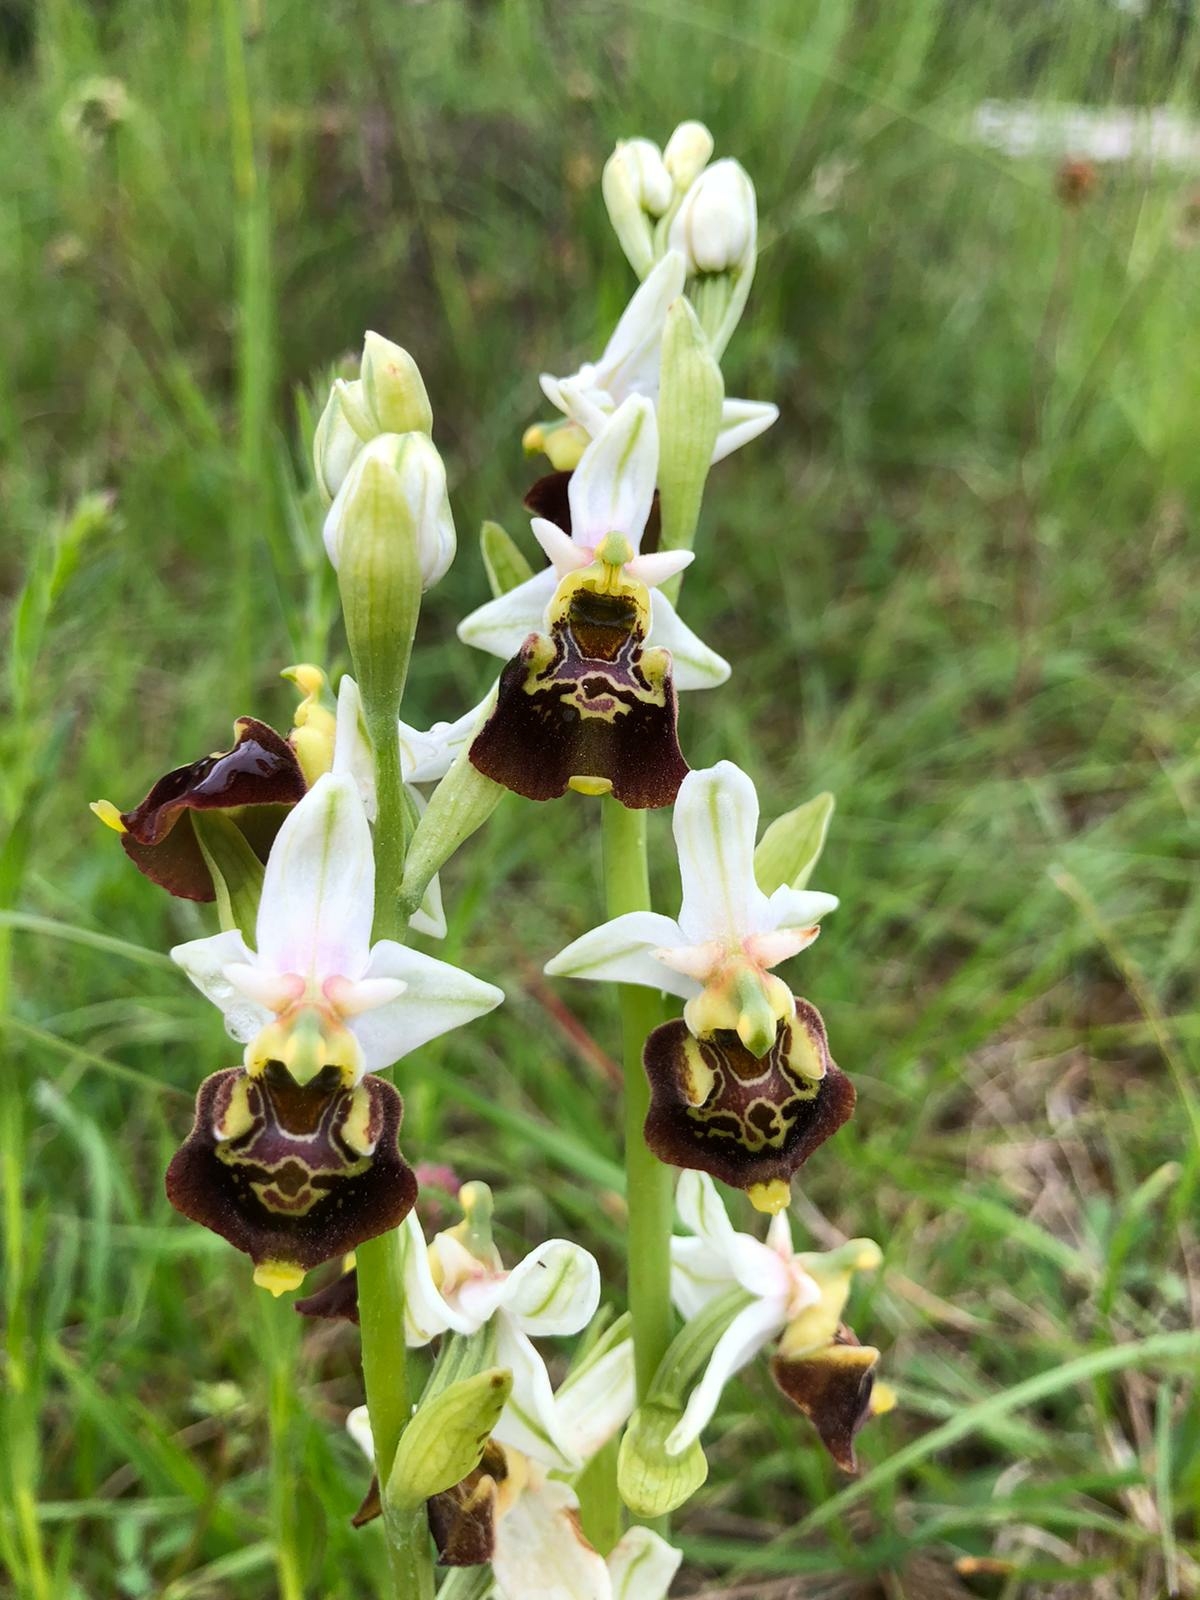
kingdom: Plantae
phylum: Tracheophyta
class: Liliopsida
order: Asparagales
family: Orchidaceae
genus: Ophrys
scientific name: Ophrys holosericea
